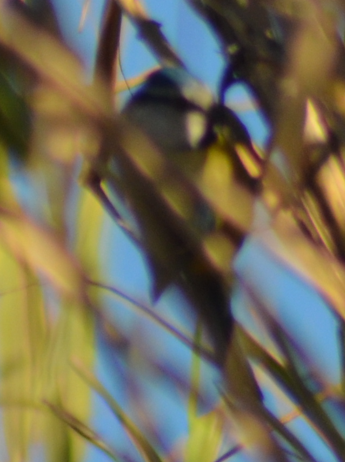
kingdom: Animalia
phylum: Chordata
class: Aves
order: Passeriformes
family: Paridae
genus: Cyanistes
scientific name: Cyanistes caeruleus
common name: Eurasian blue tit
